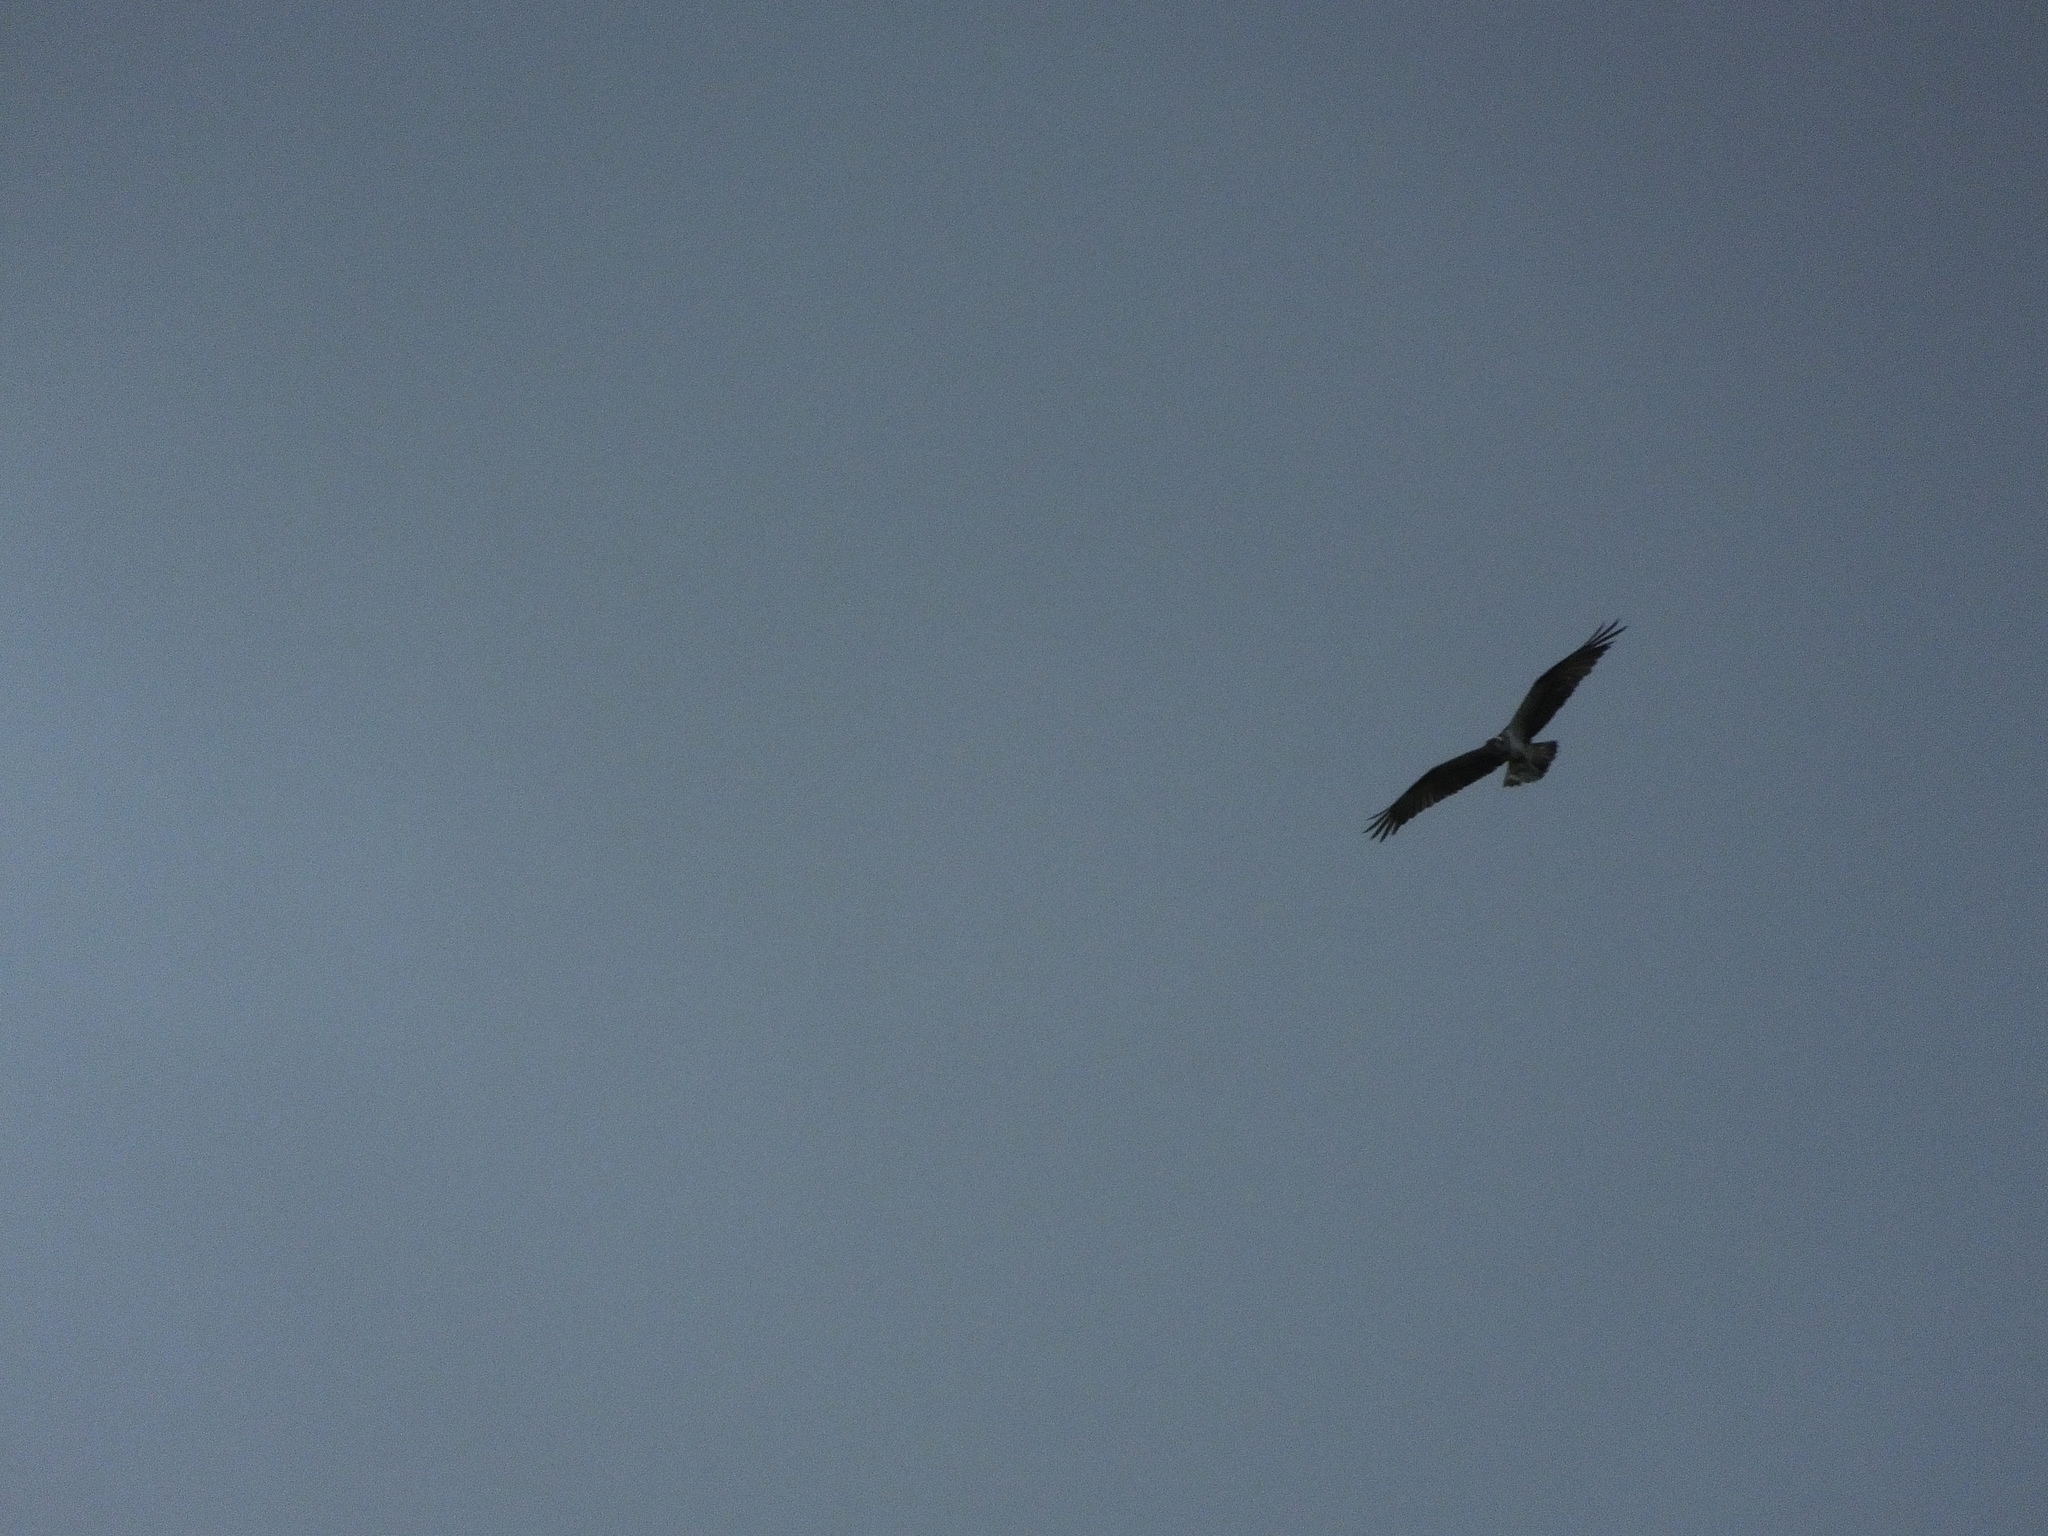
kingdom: Animalia
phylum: Chordata
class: Aves
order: Accipitriformes
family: Pandionidae
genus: Pandion
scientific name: Pandion cristatus
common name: Eastern osprey
